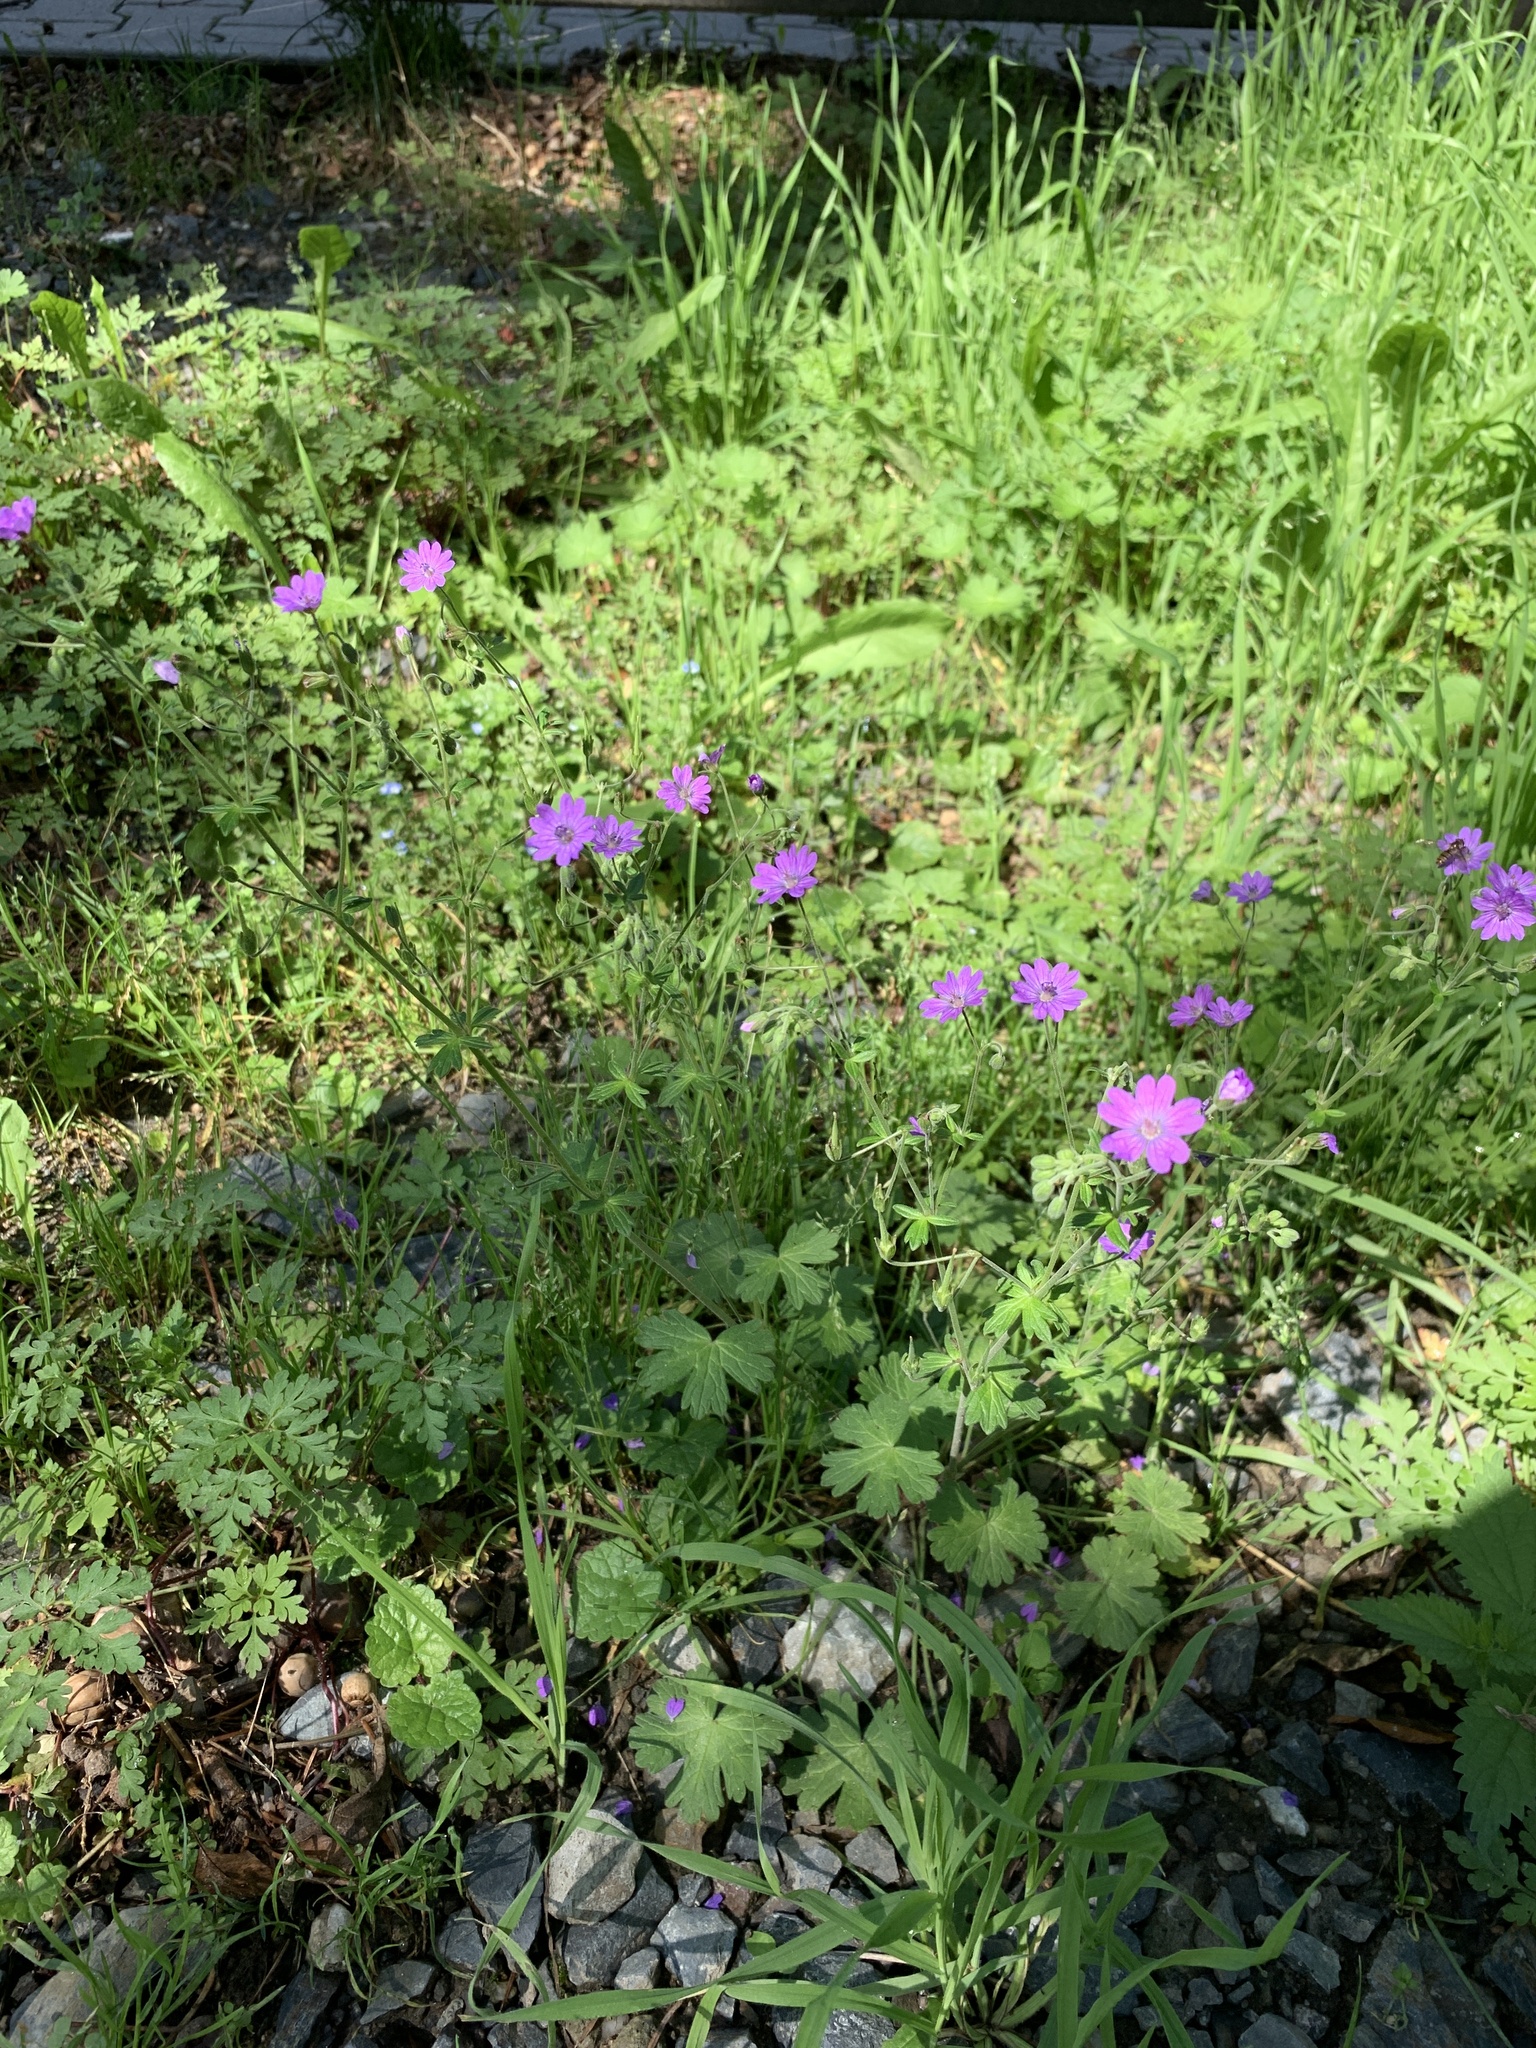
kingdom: Plantae
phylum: Tracheophyta
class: Magnoliopsida
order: Geraniales
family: Geraniaceae
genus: Geranium
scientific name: Geranium pyrenaicum
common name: Hedgerow crane's-bill
